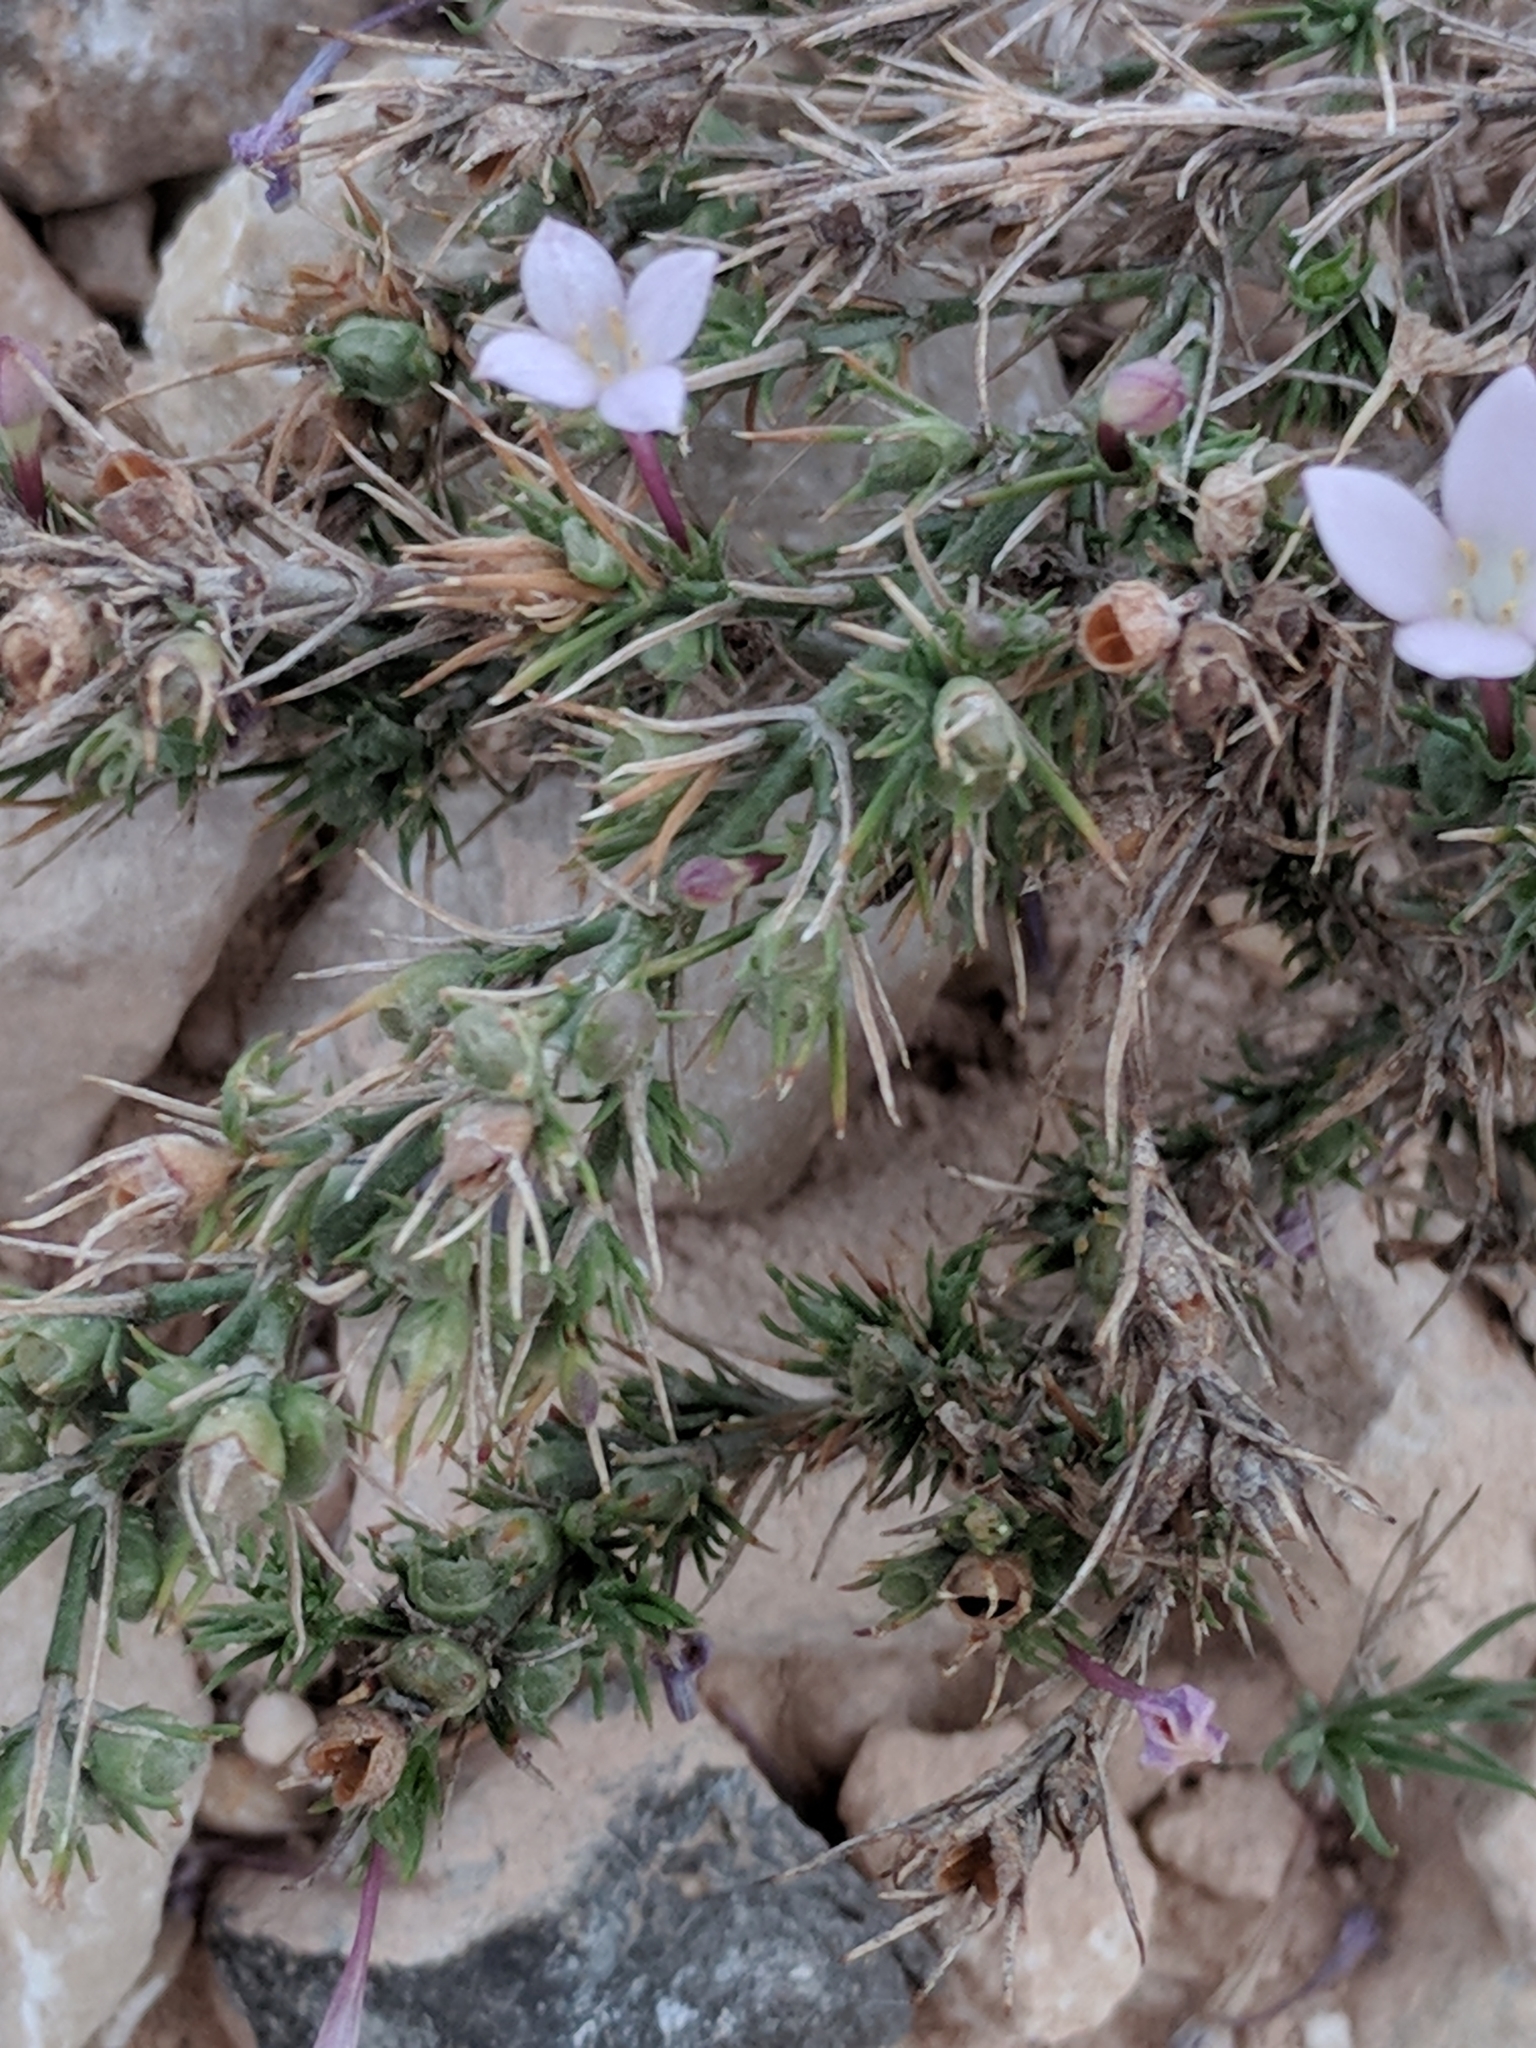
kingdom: Plantae
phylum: Tracheophyta
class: Magnoliopsida
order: Gentianales
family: Rubiaceae
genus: Houstonia
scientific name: Houstonia acerosa
